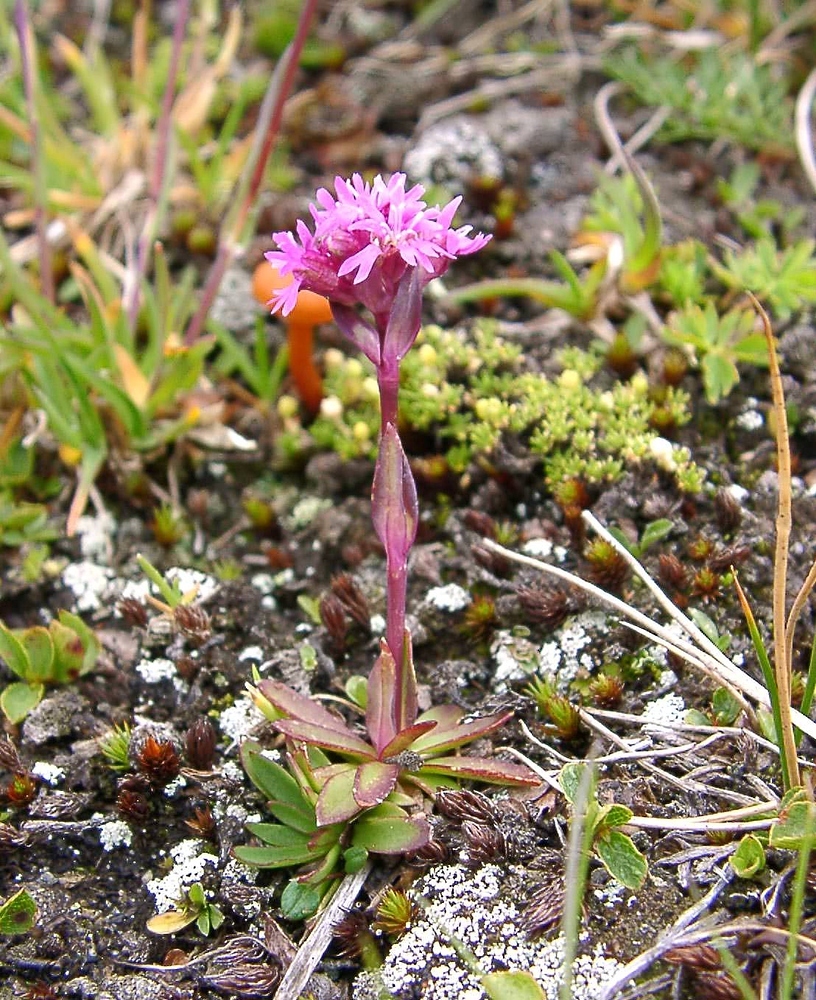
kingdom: Plantae
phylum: Tracheophyta
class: Magnoliopsida
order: Caryophyllales
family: Caryophyllaceae
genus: Viscaria
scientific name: Viscaria alpina
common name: Alpine campion
